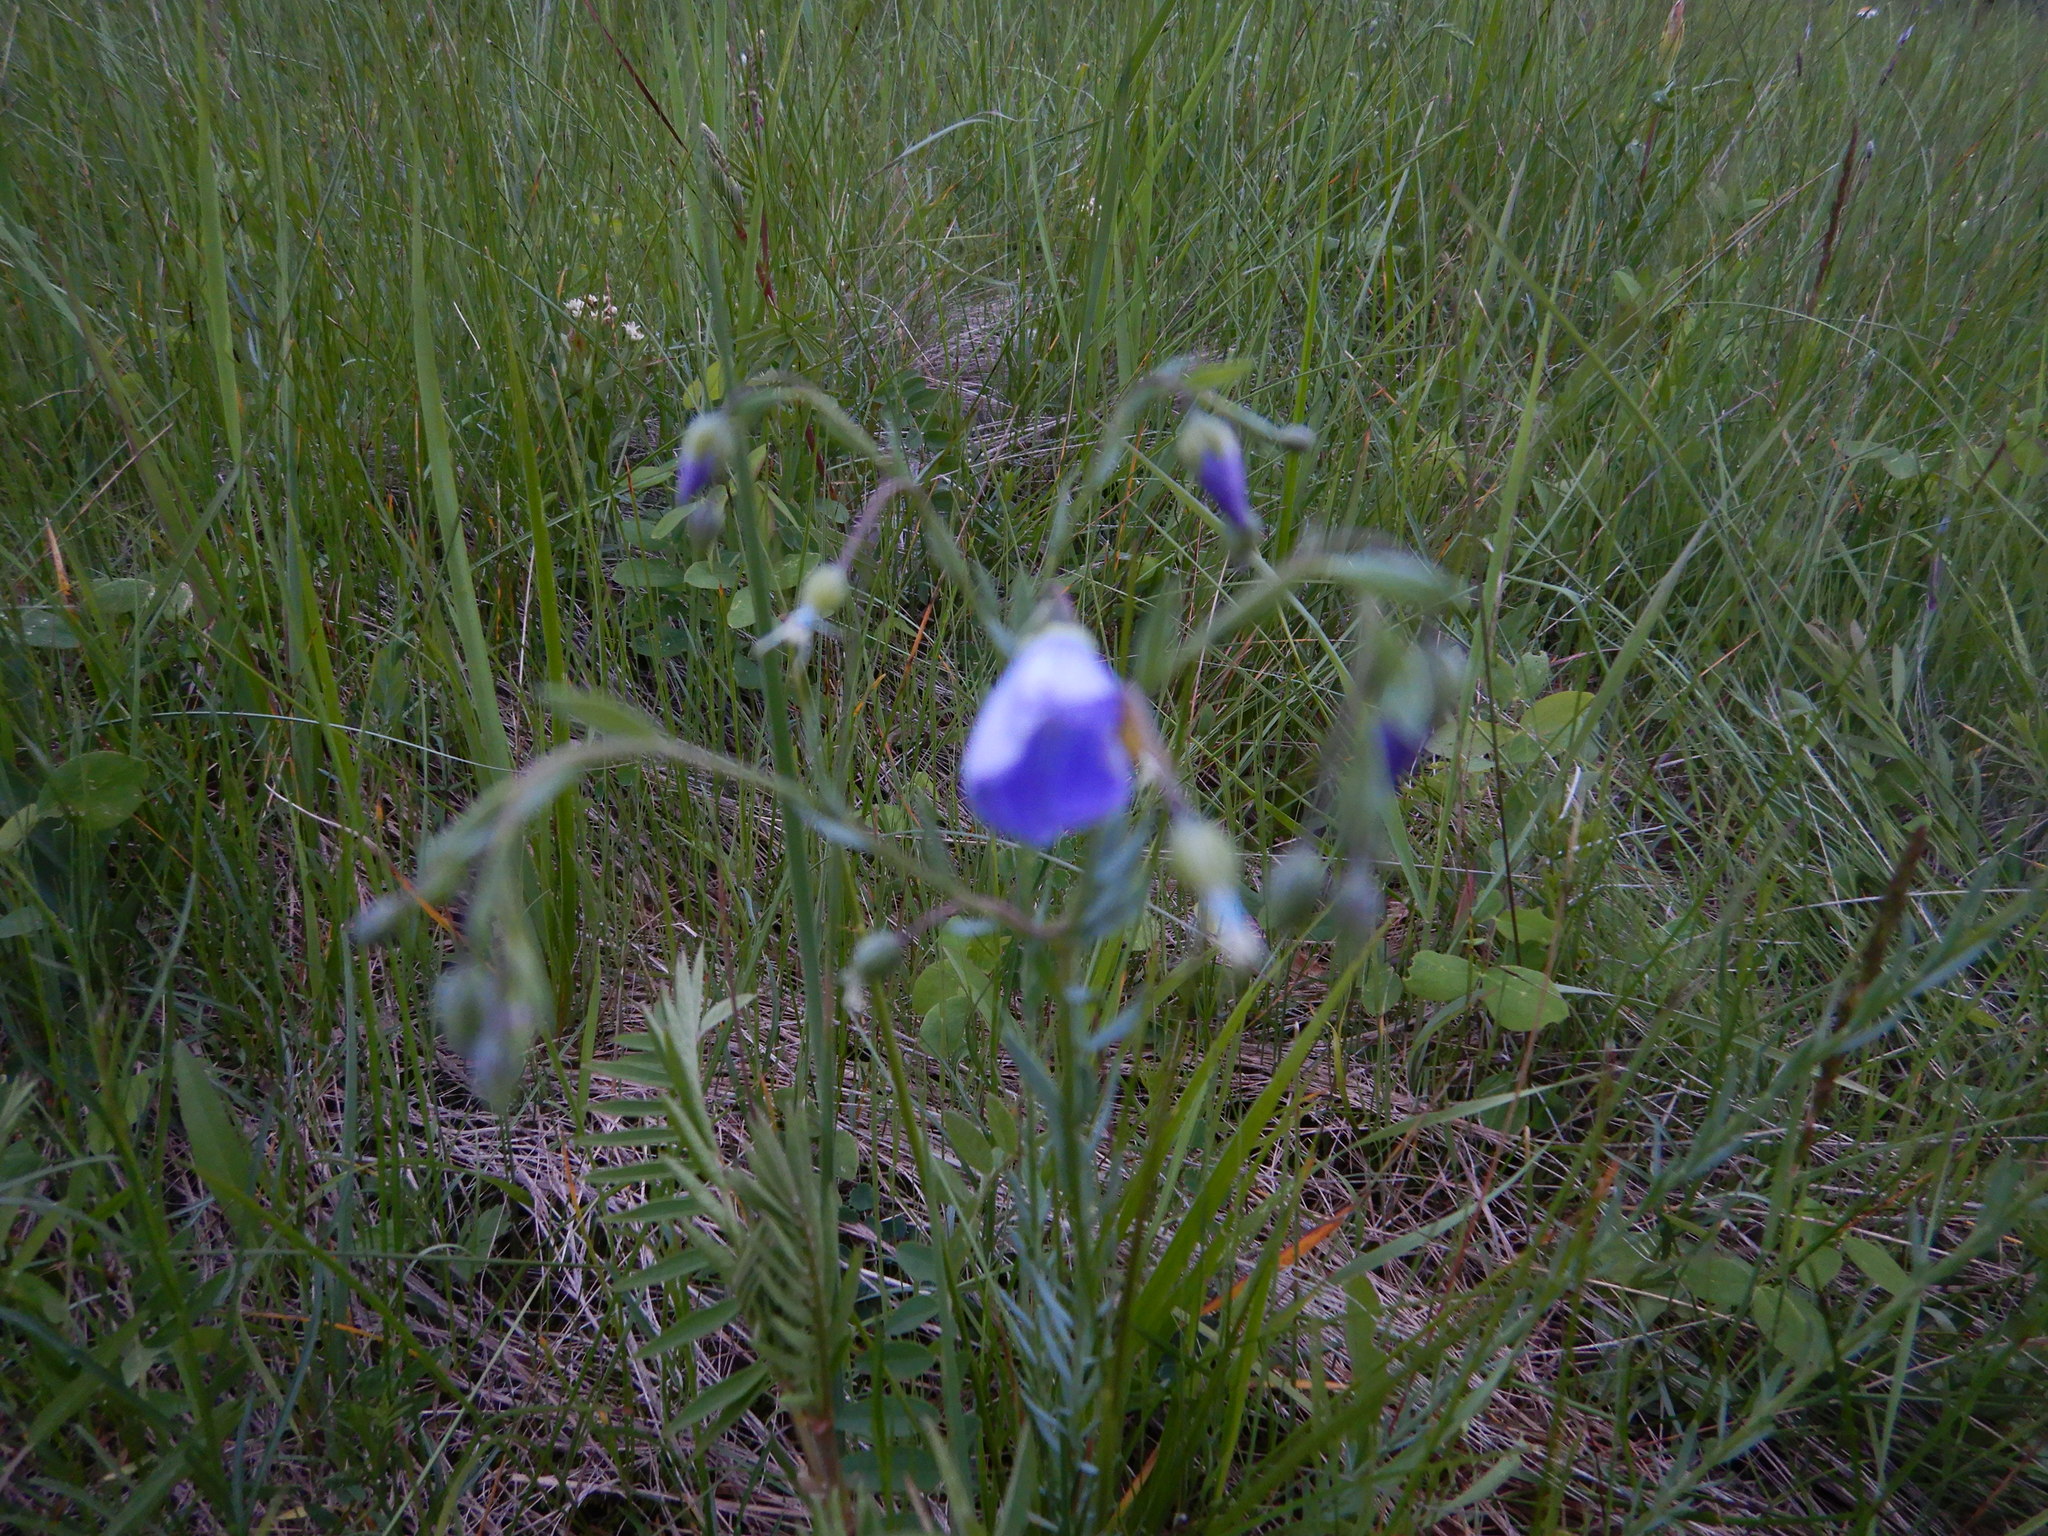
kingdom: Plantae
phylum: Tracheophyta
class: Magnoliopsida
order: Malpighiales
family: Linaceae
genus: Linum
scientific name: Linum lewisii
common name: Prairie flax
